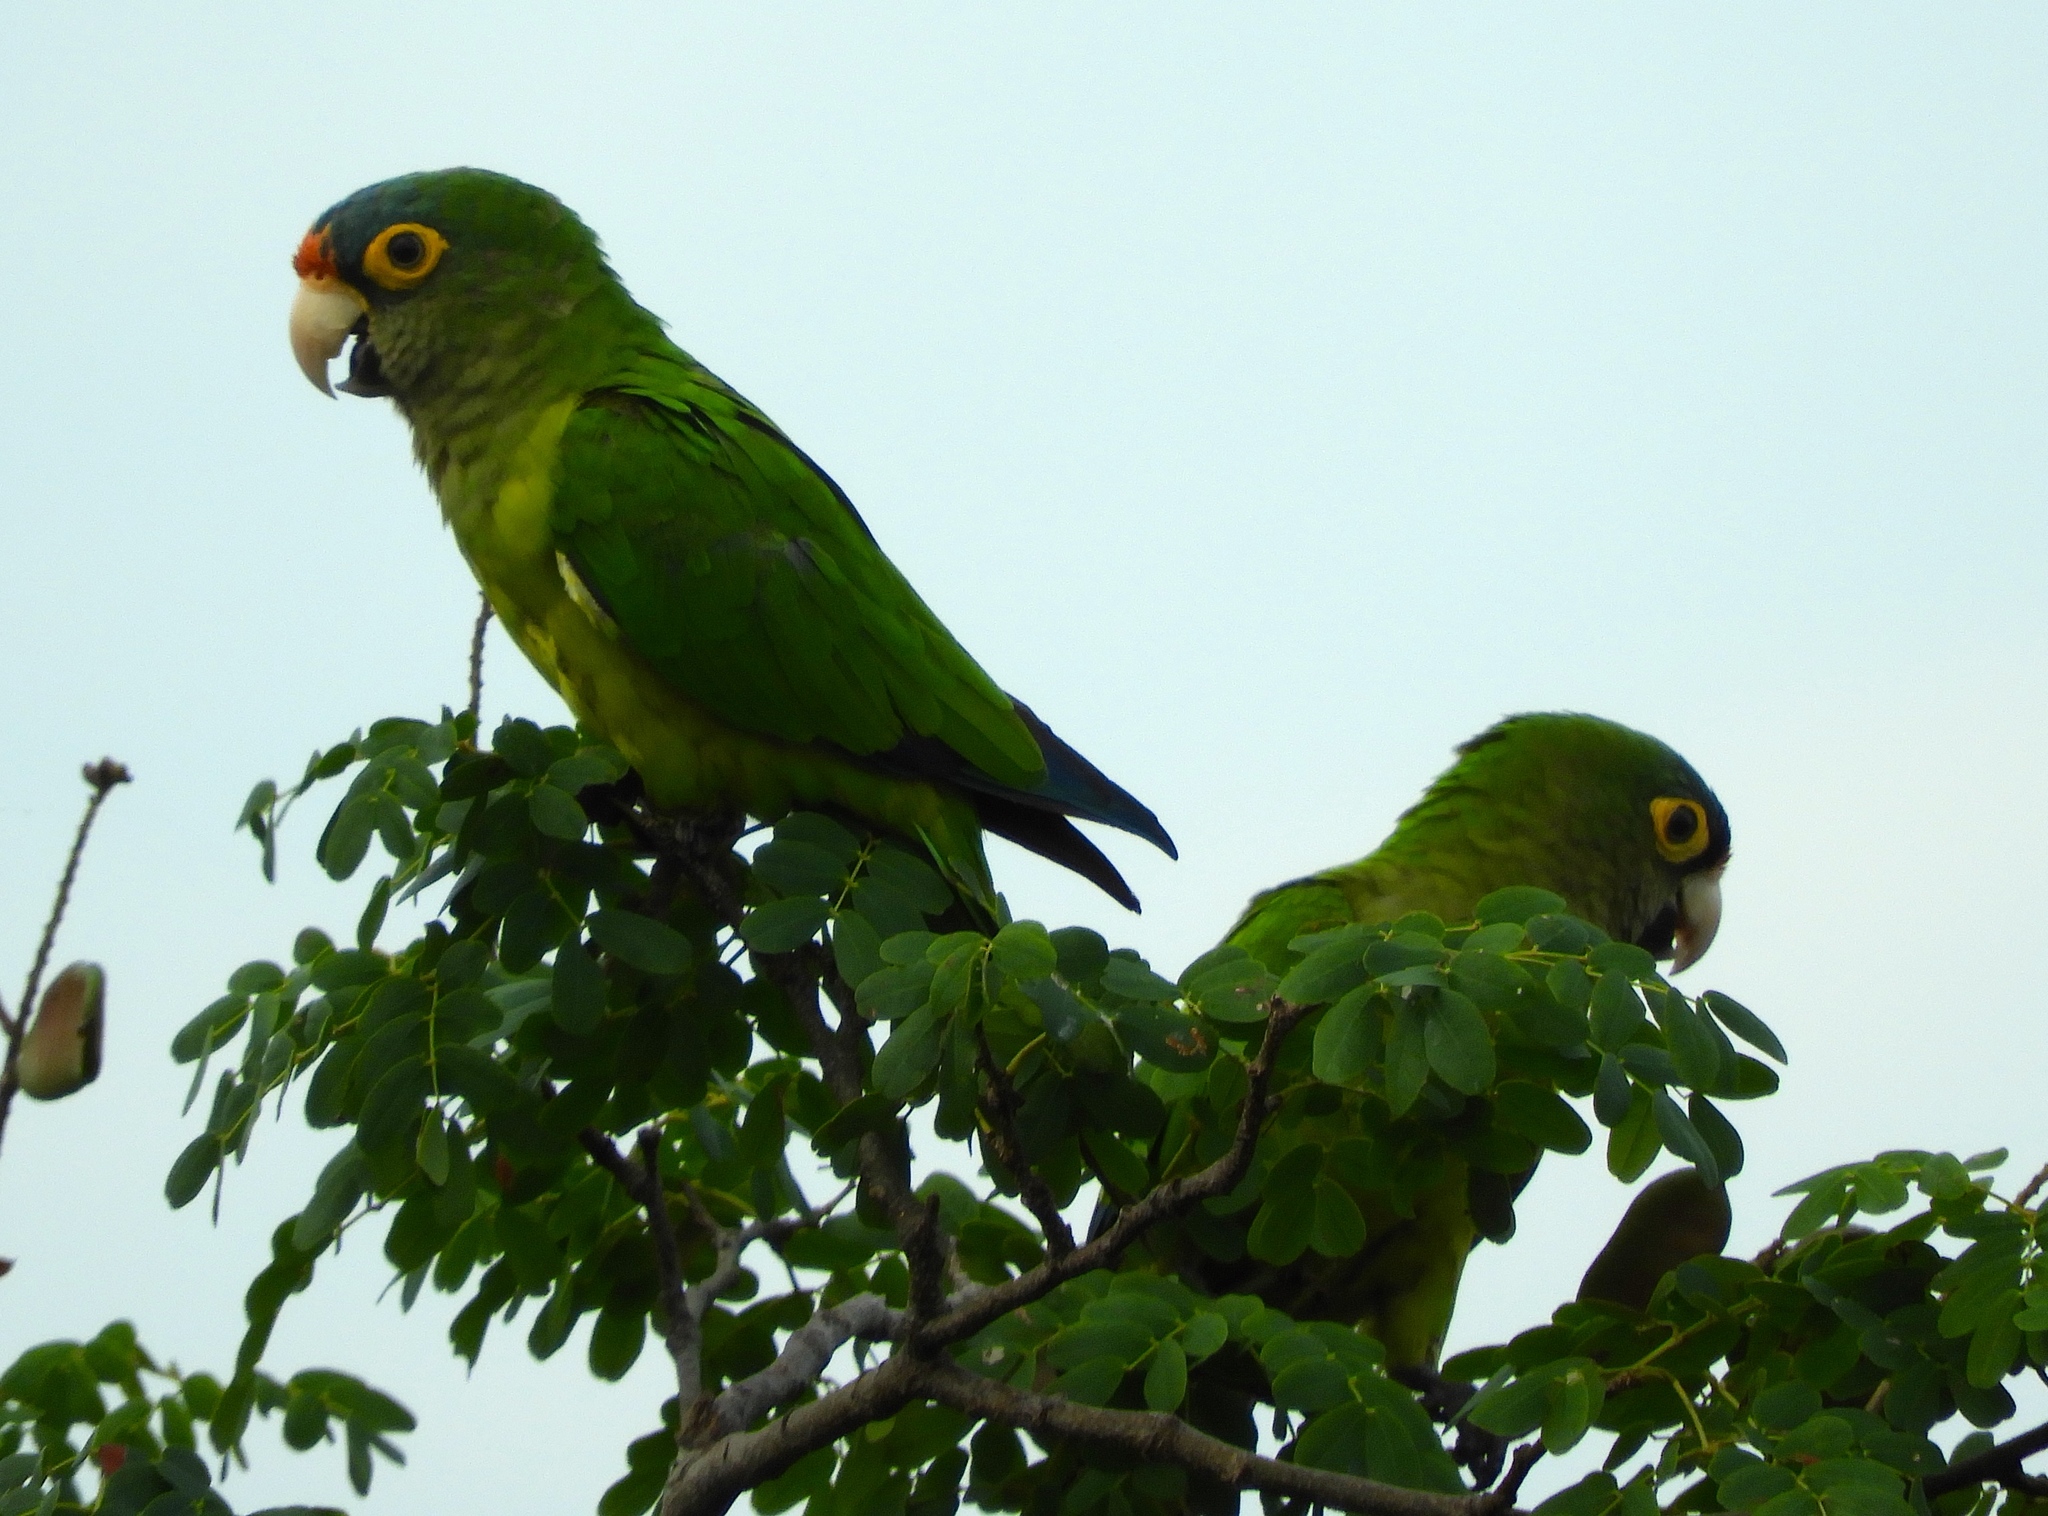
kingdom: Animalia
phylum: Chordata
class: Aves
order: Psittaciformes
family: Psittacidae
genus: Aratinga
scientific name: Aratinga canicularis
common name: Orange-fronted parakeet
